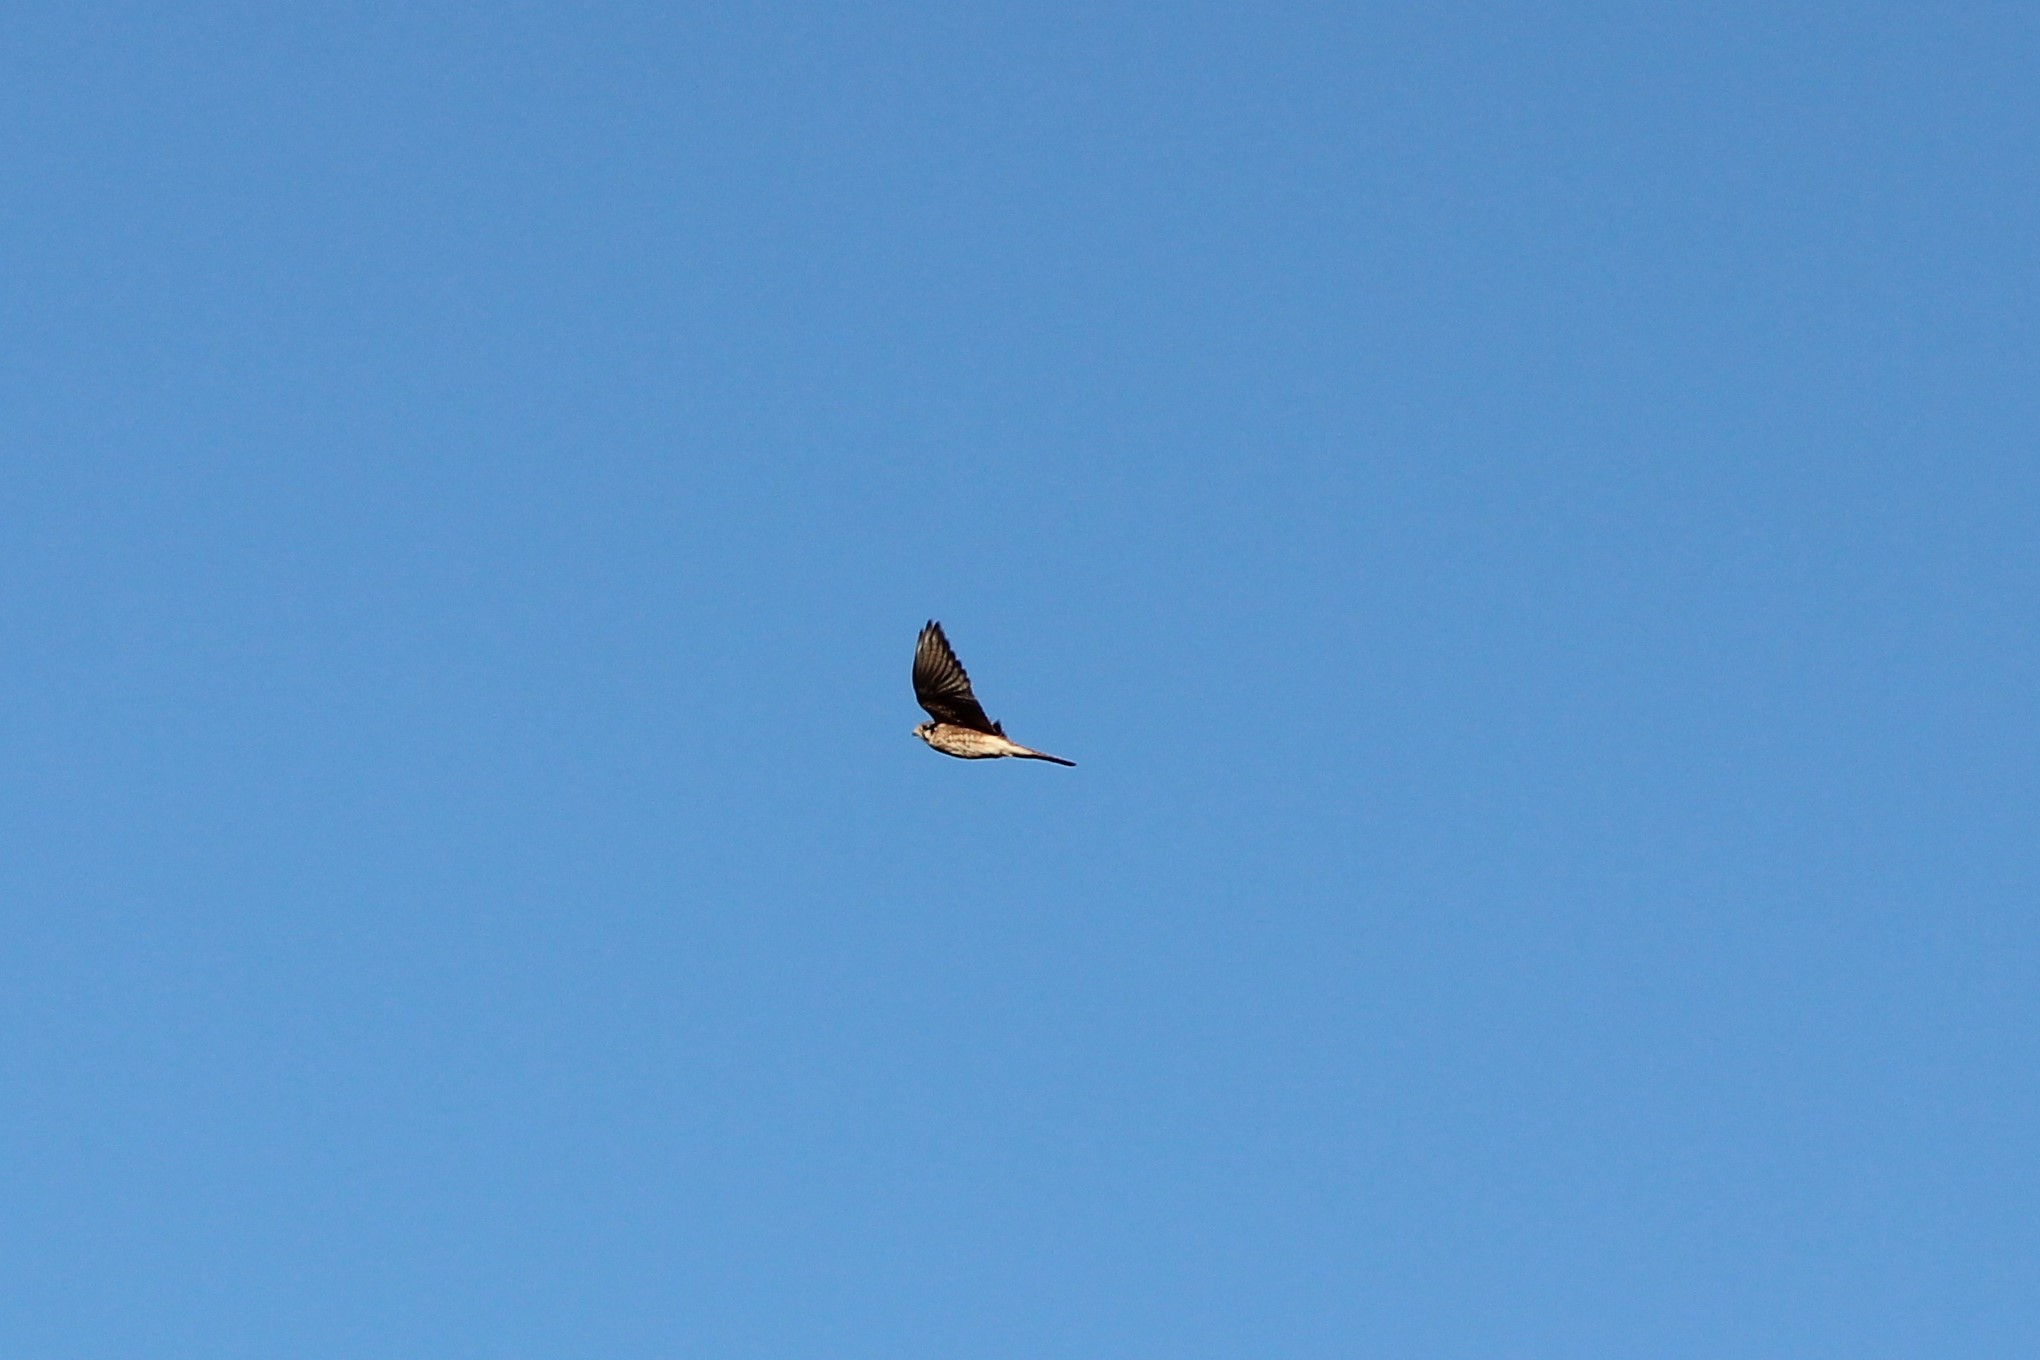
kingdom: Animalia
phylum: Chordata
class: Aves
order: Falconiformes
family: Falconidae
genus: Falco
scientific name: Falco sparverius
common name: American kestrel
